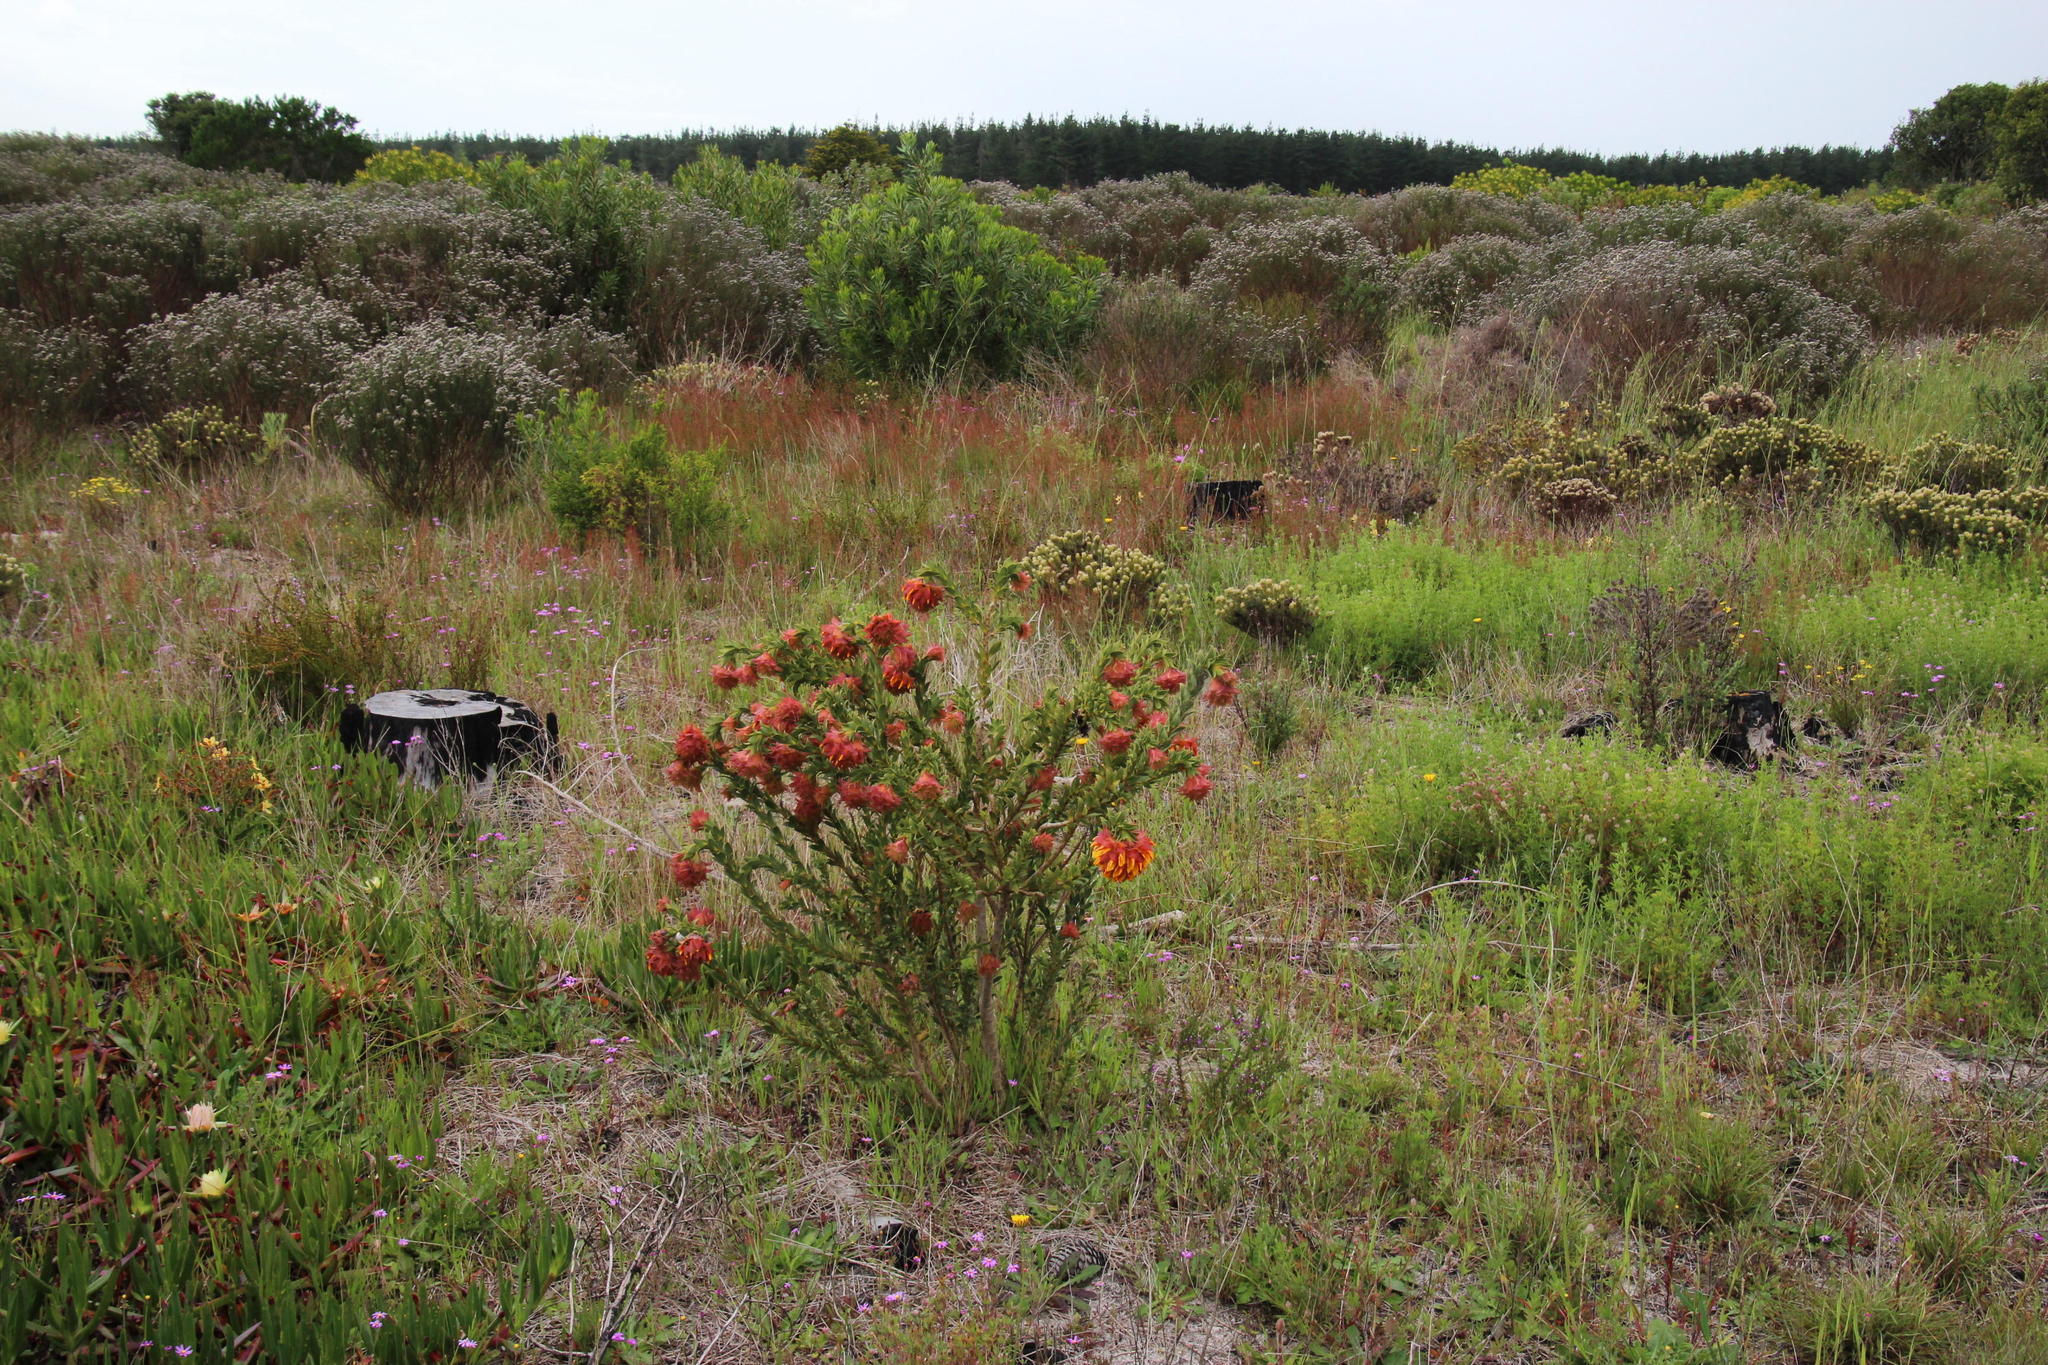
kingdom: Plantae
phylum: Tracheophyta
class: Magnoliopsida
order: Fabales
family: Fabaceae
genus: Liparia
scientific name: Liparia splendens
